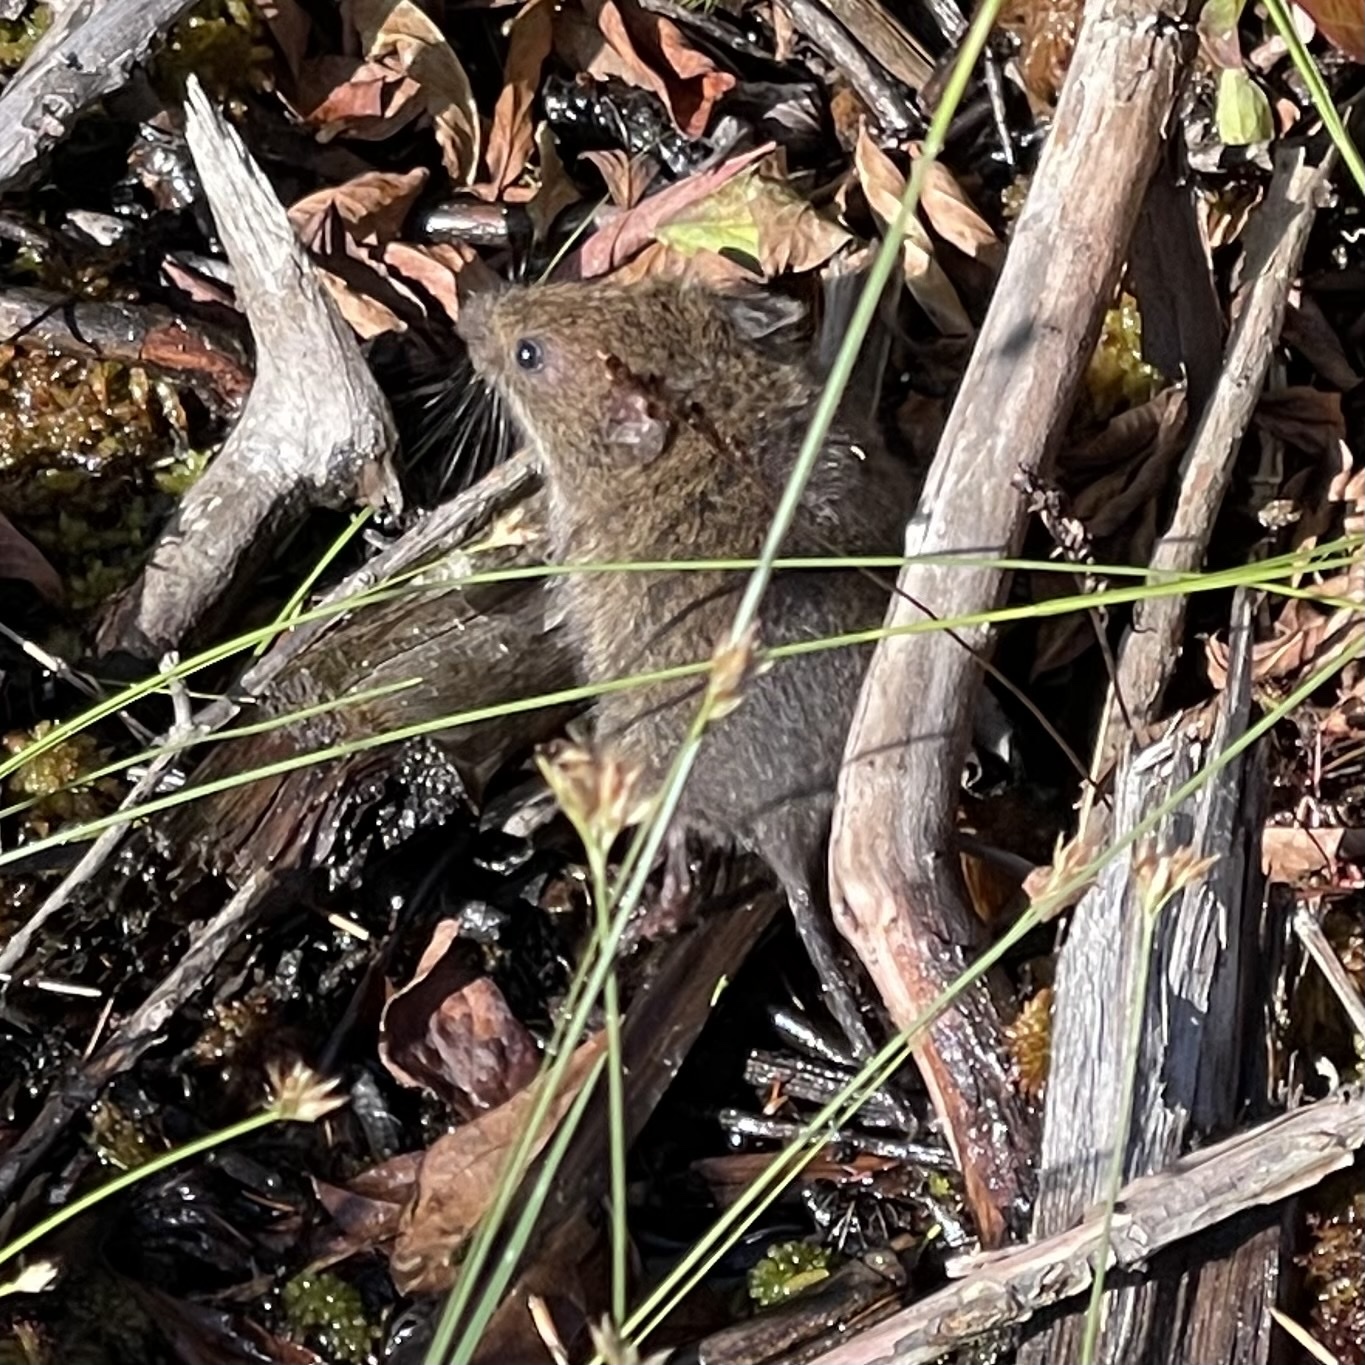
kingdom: Animalia
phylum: Chordata
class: Mammalia
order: Rodentia
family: Cricetidae
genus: Microtus
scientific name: Microtus pennsylvanicus
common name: Meadow vole
